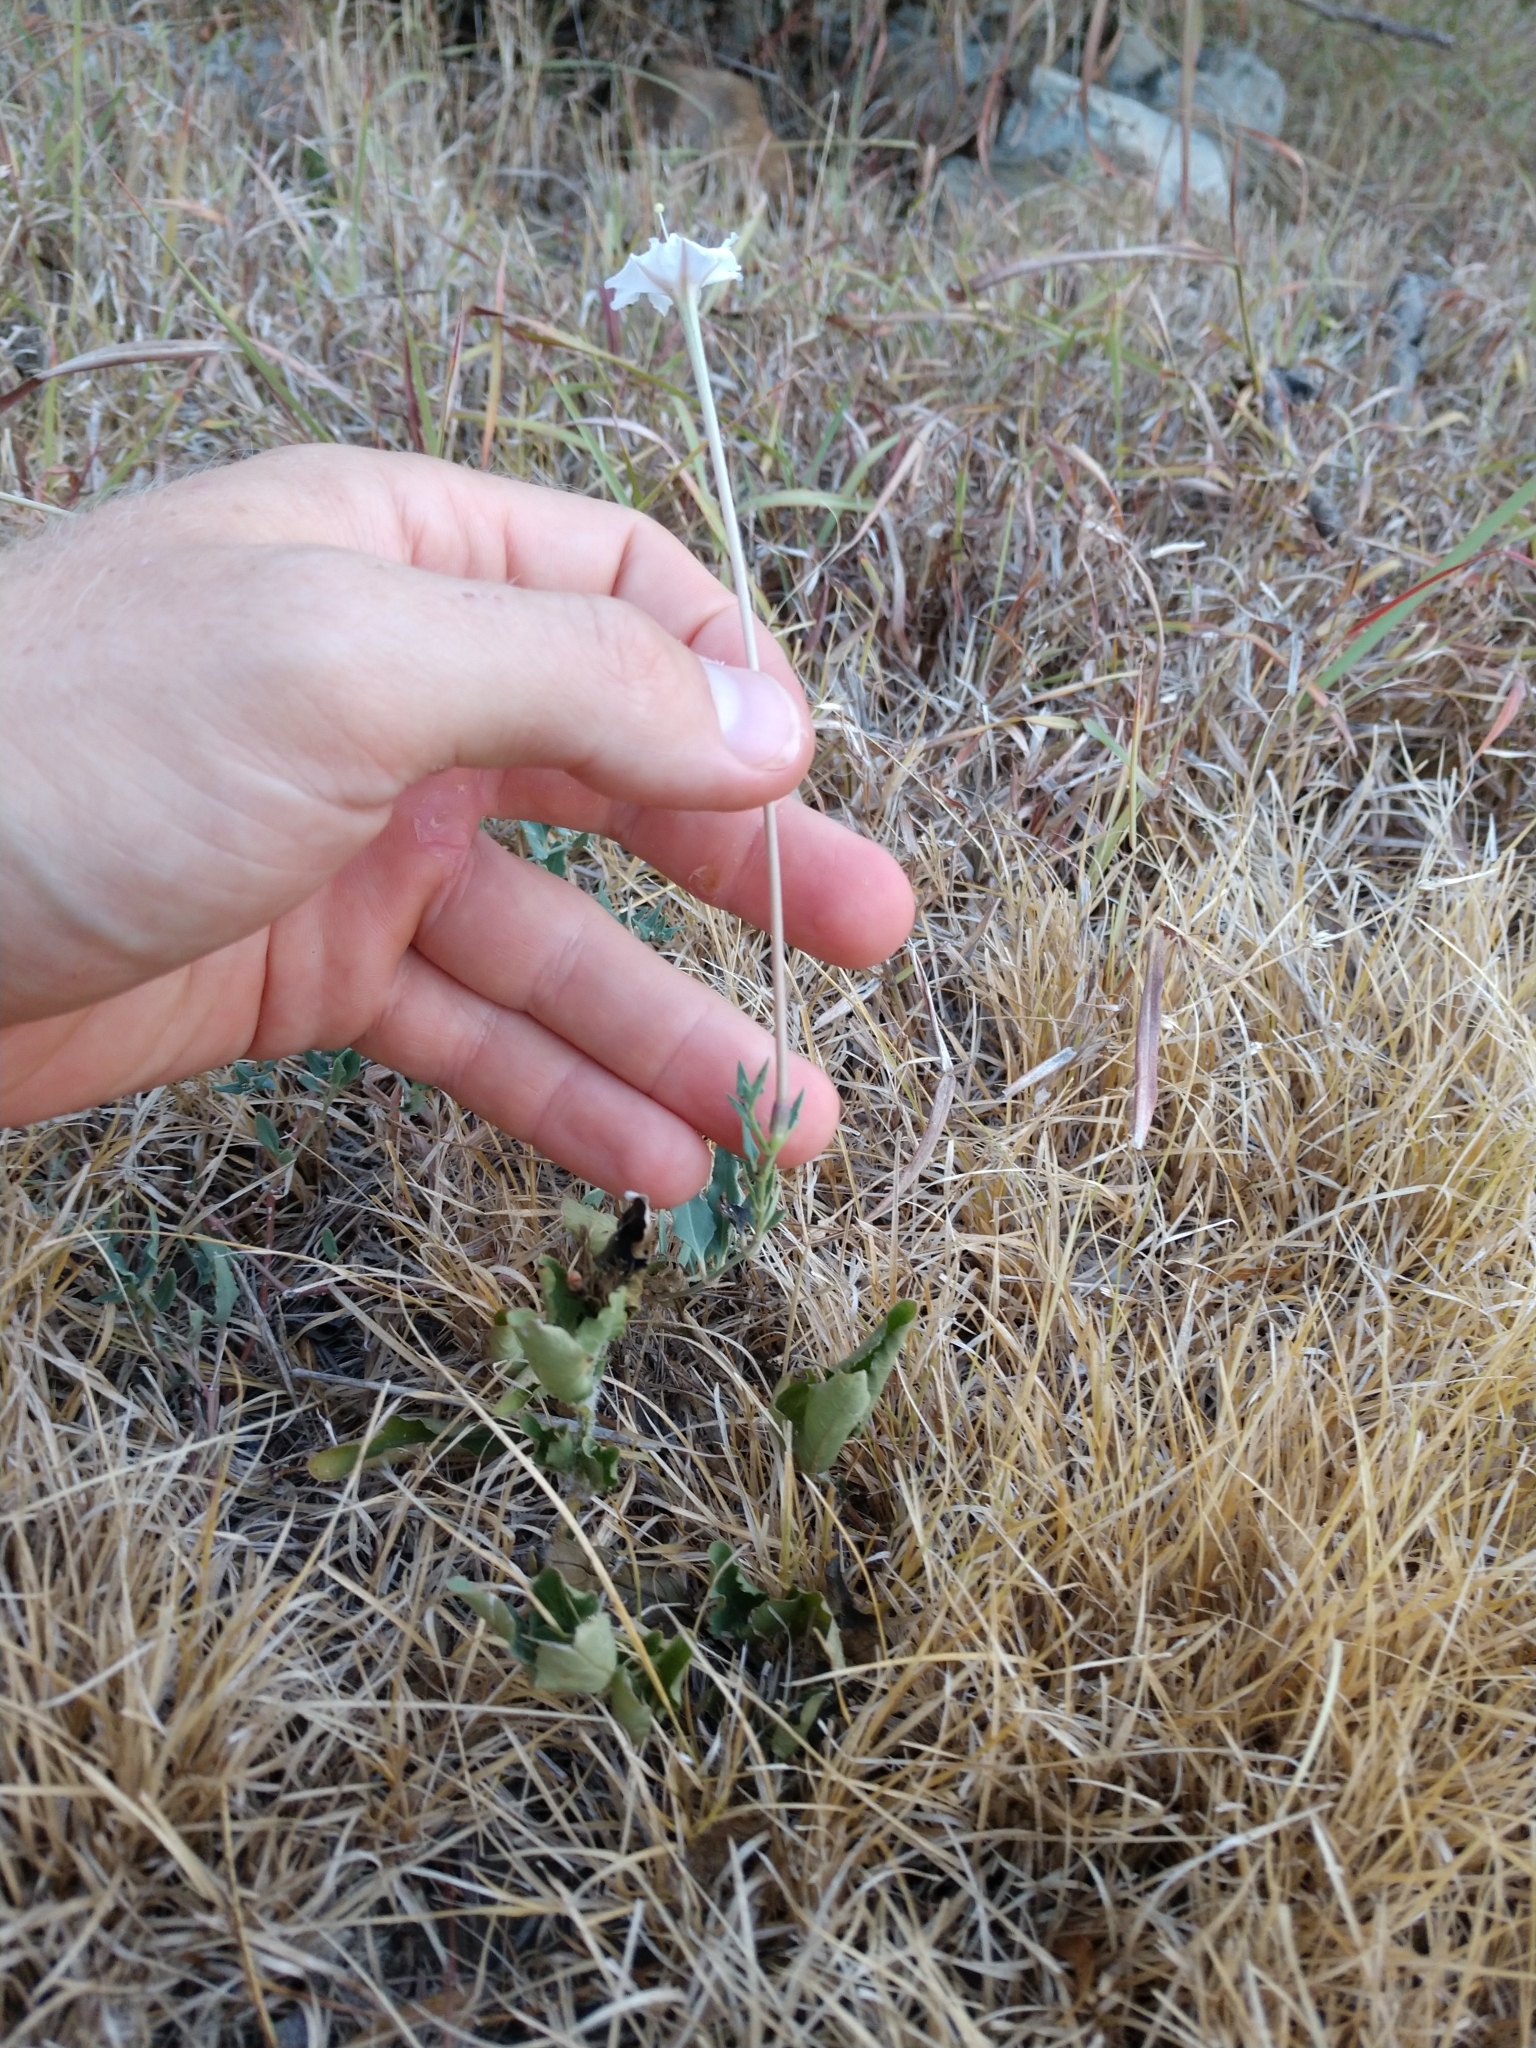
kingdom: Plantae
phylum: Tracheophyta
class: Magnoliopsida
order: Caryophyllales
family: Nyctaginaceae
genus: Acleisanthes
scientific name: Acleisanthes longiflora
